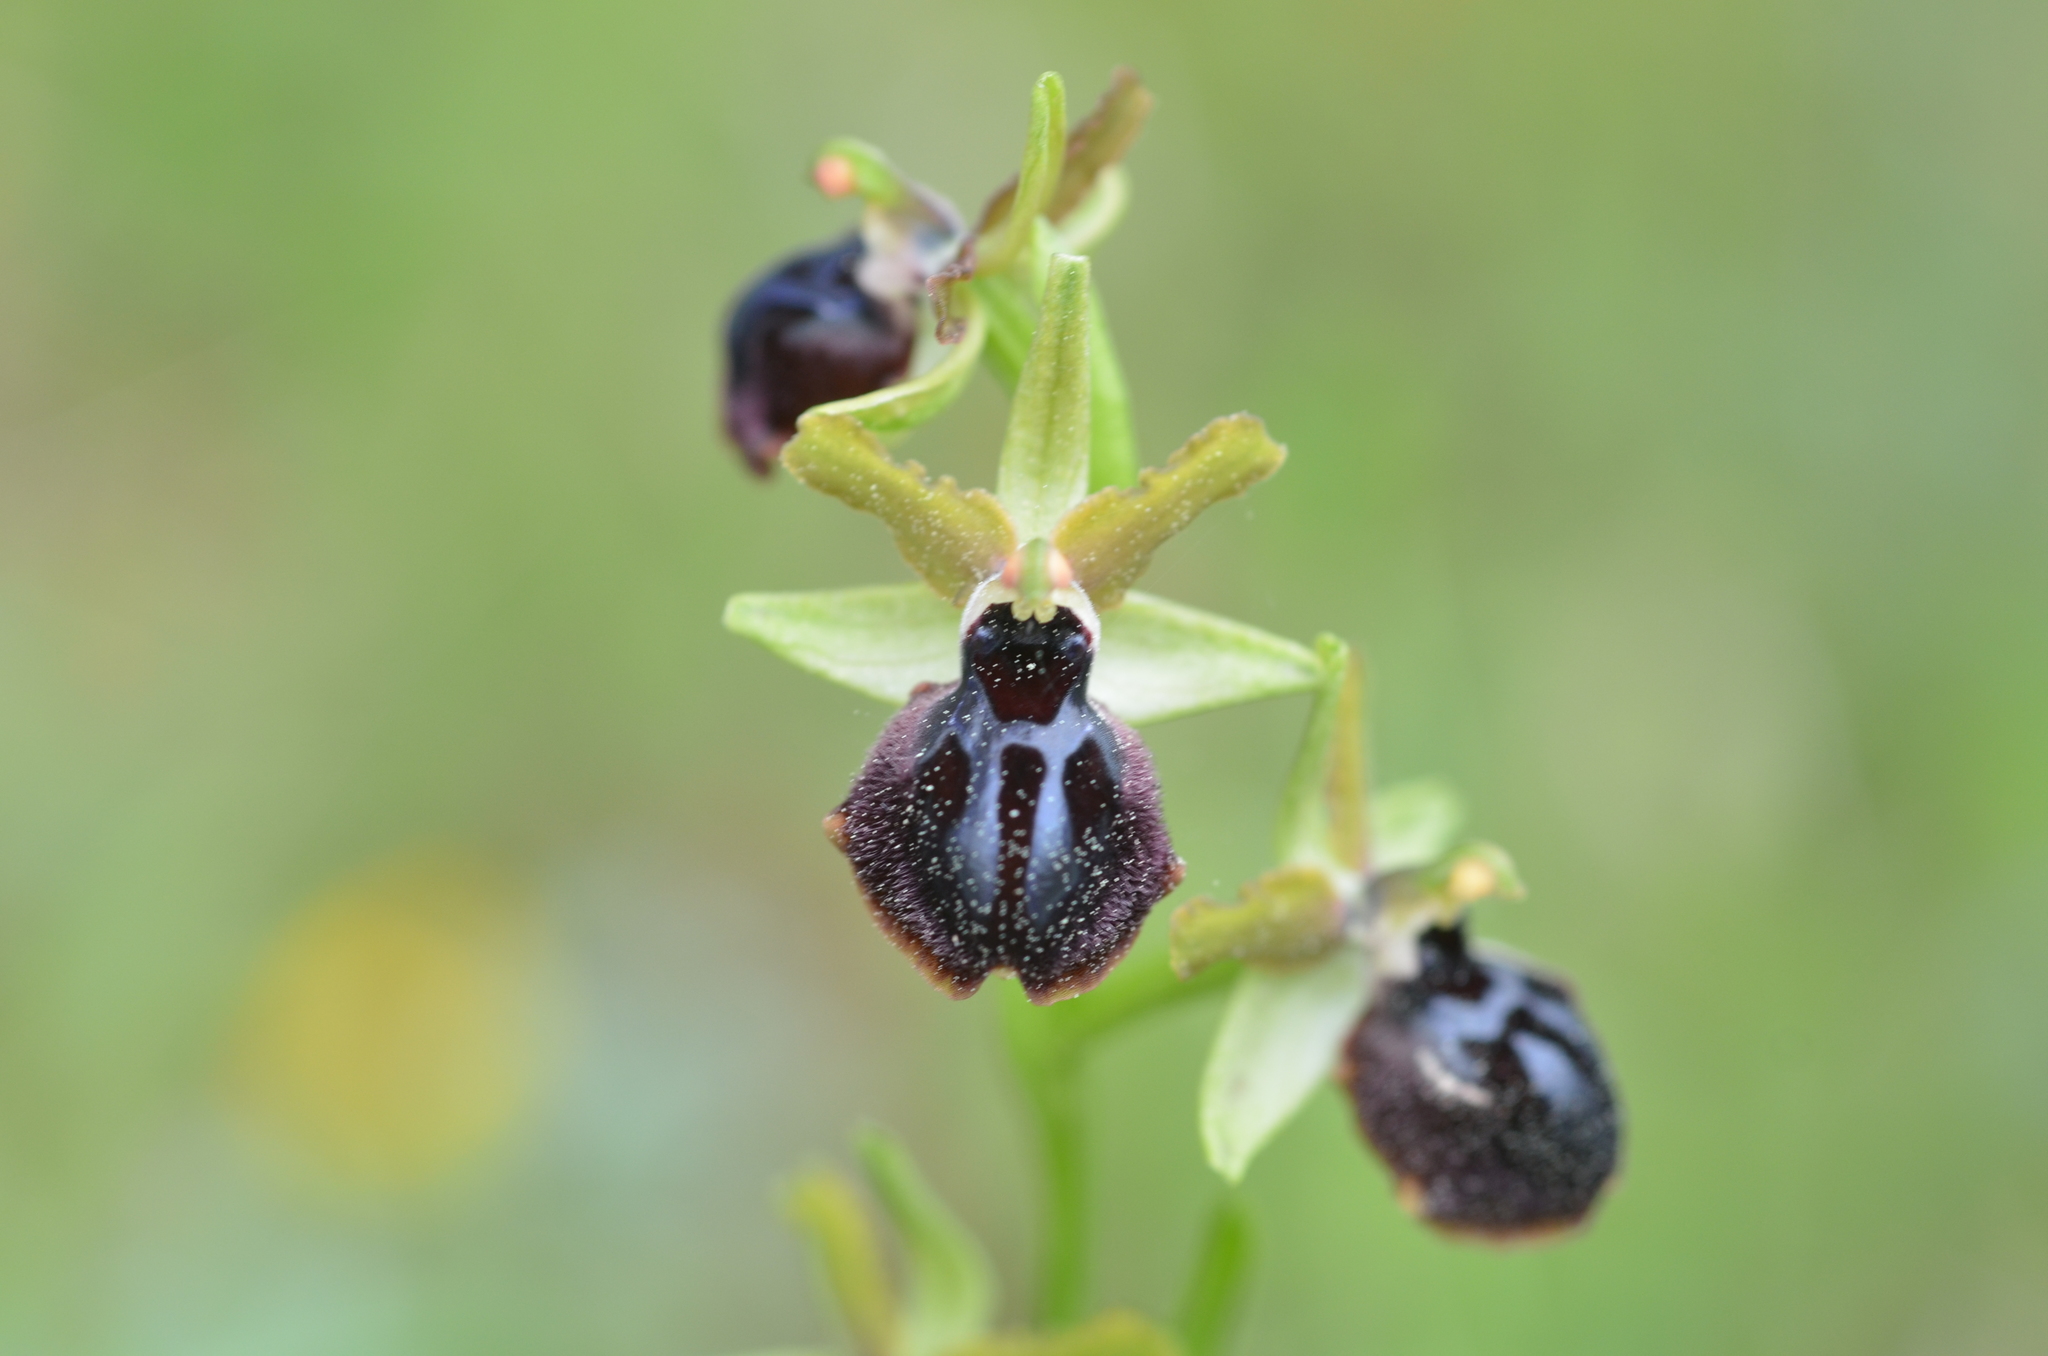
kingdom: Plantae
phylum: Tracheophyta
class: Liliopsida
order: Asparagales
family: Orchidaceae
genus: Ophrys
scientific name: Ophrys sphegodes
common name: Early spider-orchid
